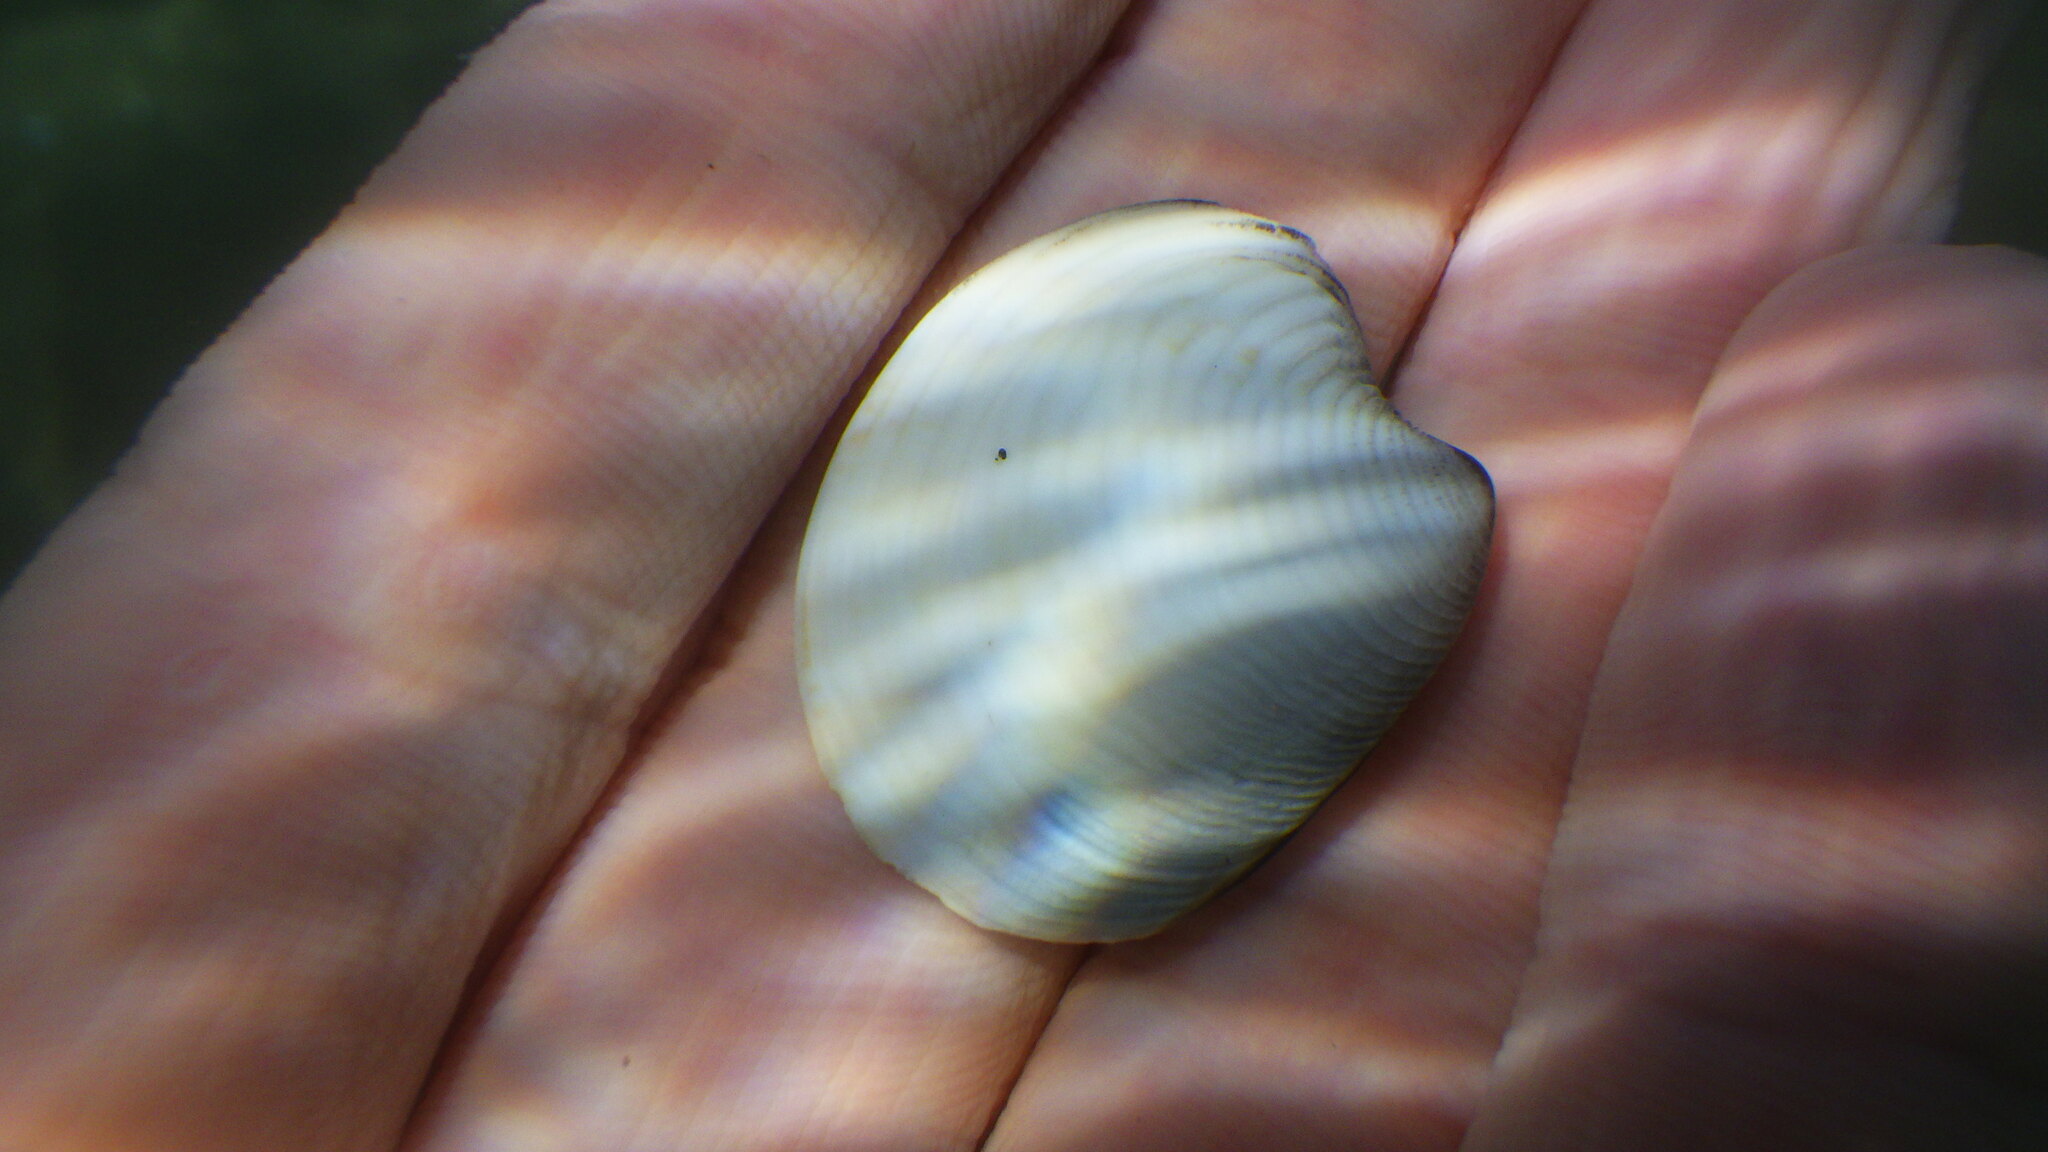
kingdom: Animalia
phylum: Mollusca
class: Bivalvia
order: Venerida
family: Veneridae
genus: Chamelea
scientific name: Chamelea gallina
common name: Chicken venus
